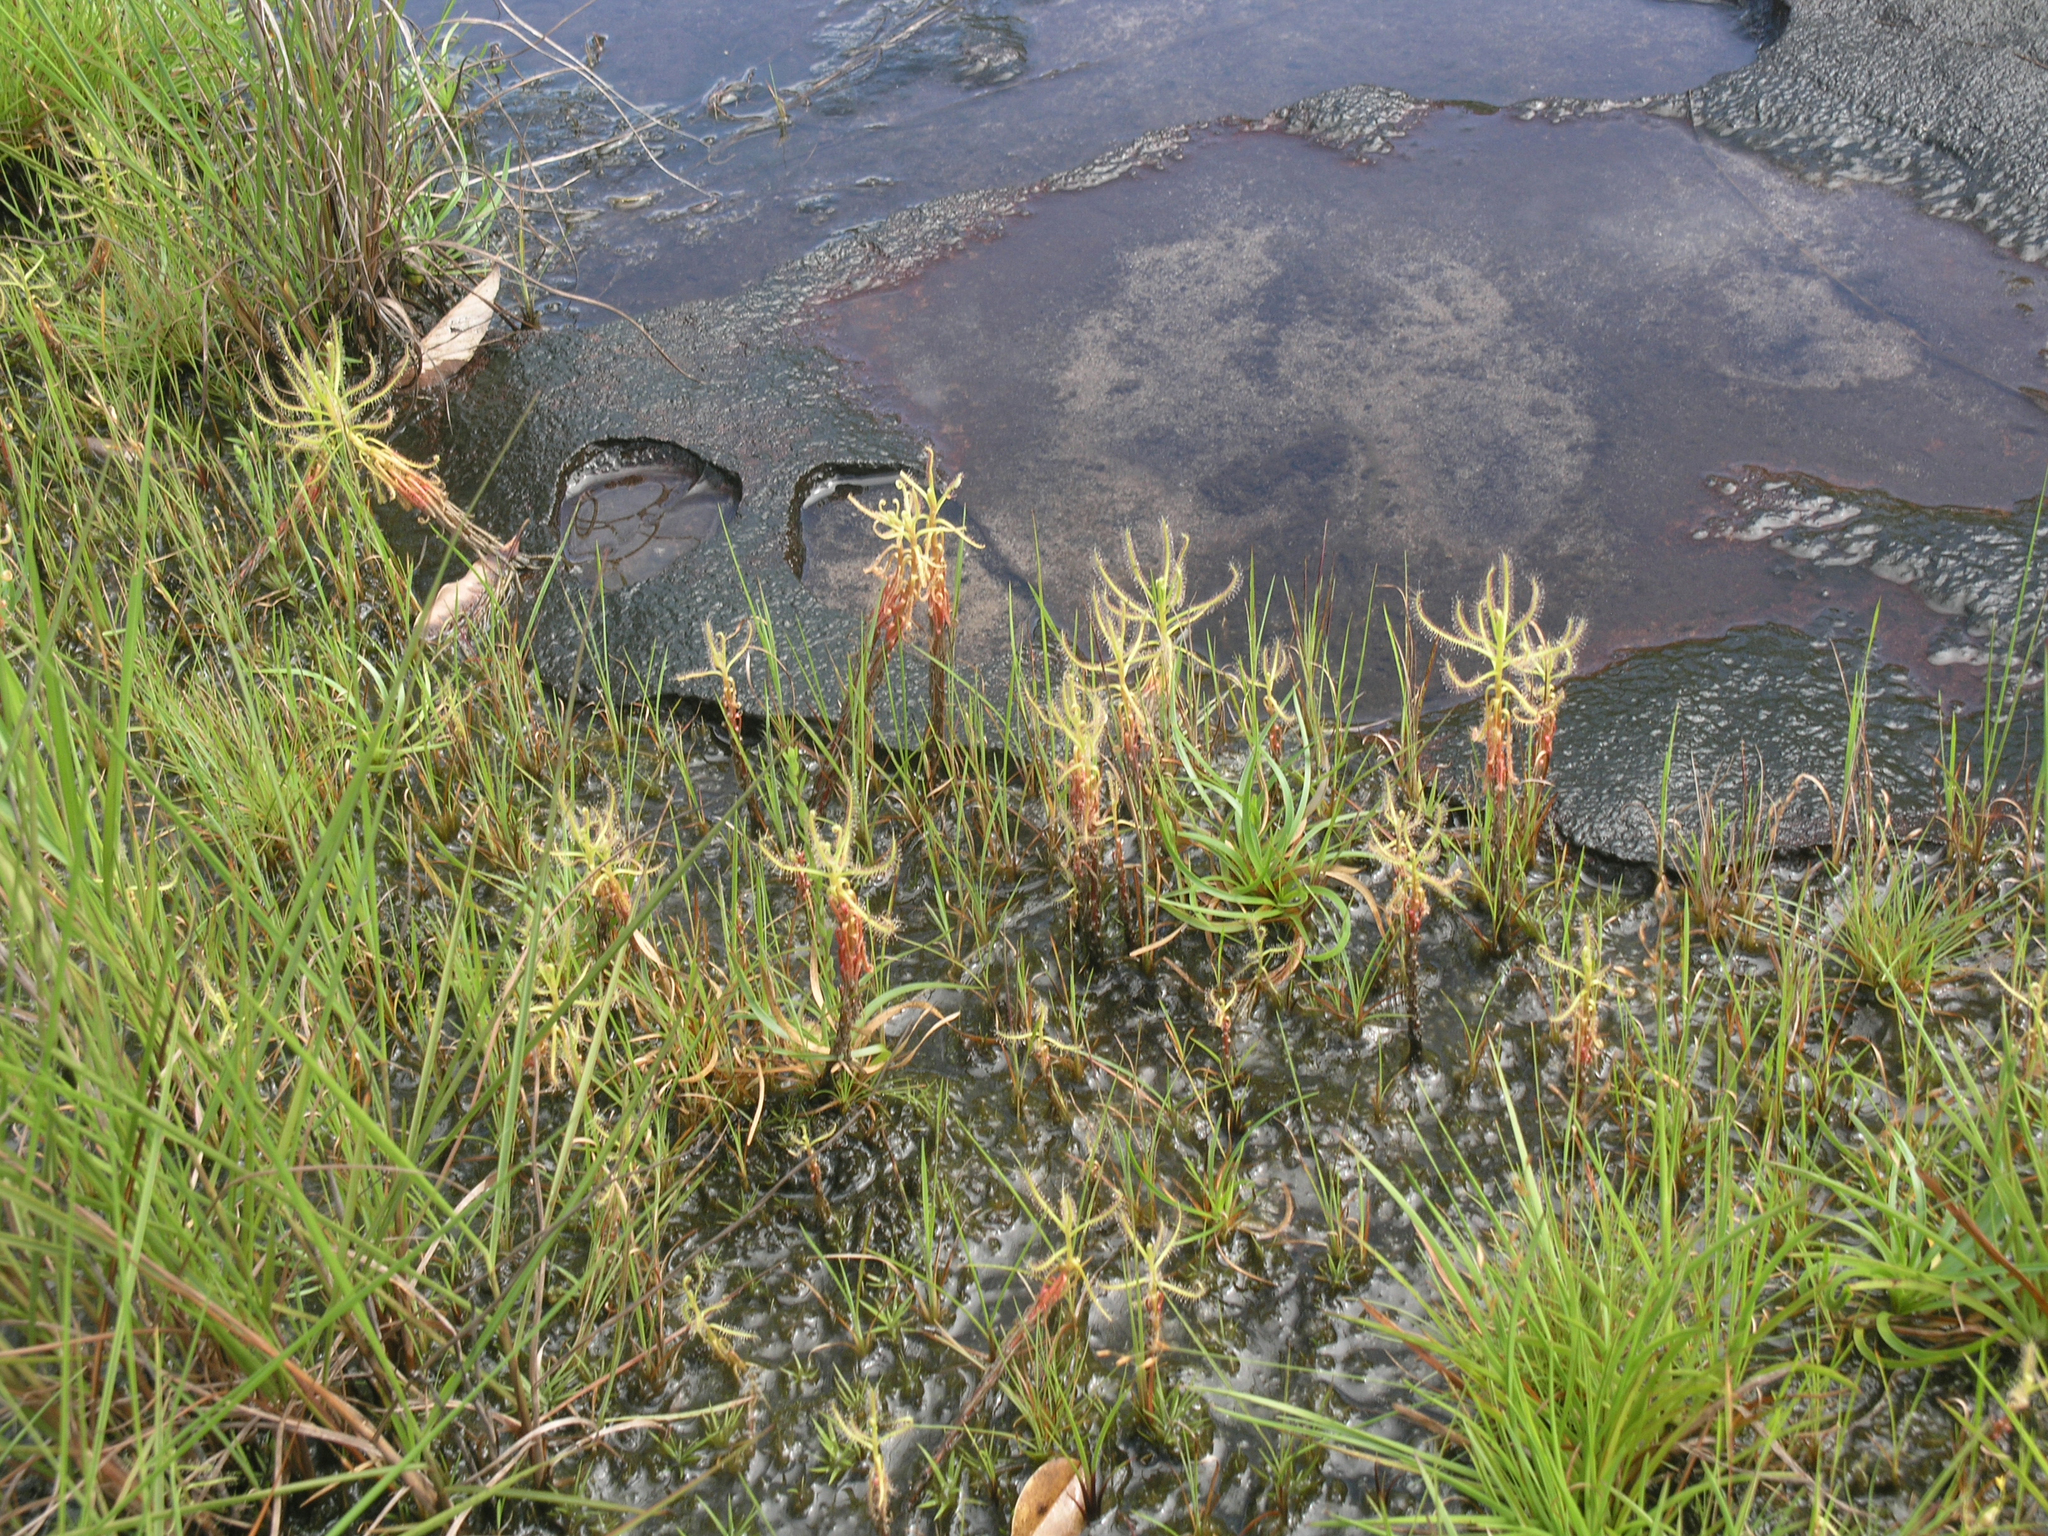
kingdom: Plantae
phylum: Tracheophyta
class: Magnoliopsida
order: Caryophyllales
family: Droseraceae
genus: Drosera
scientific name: Drosera indica
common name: Indian sundew
